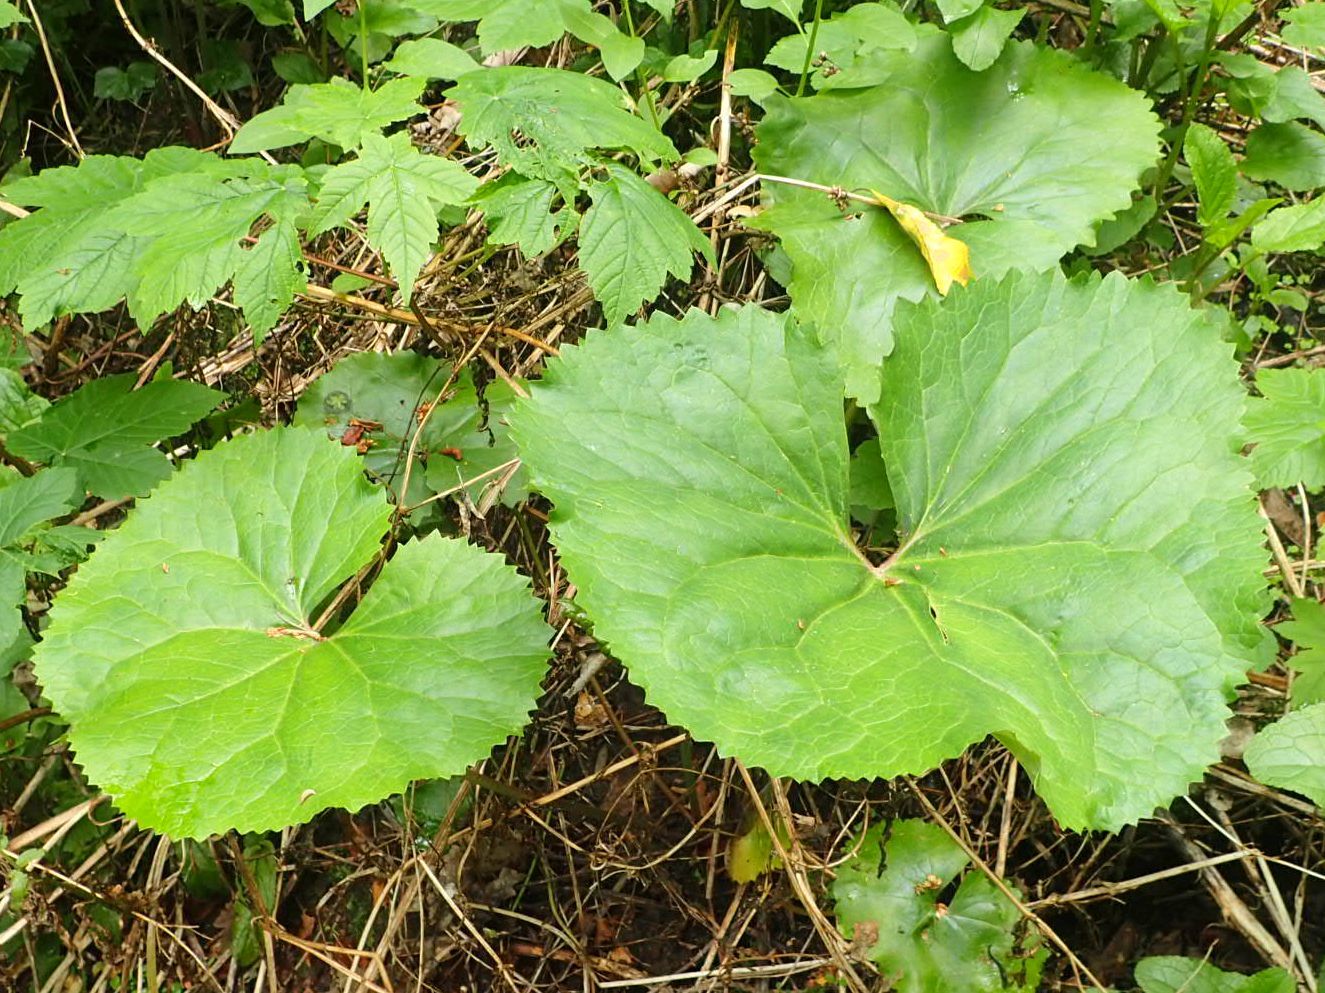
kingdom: Plantae
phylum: Tracheophyta
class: Magnoliopsida
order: Asterales
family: Asteraceae
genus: Ligularia
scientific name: Ligularia dentata
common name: Leopardplant
